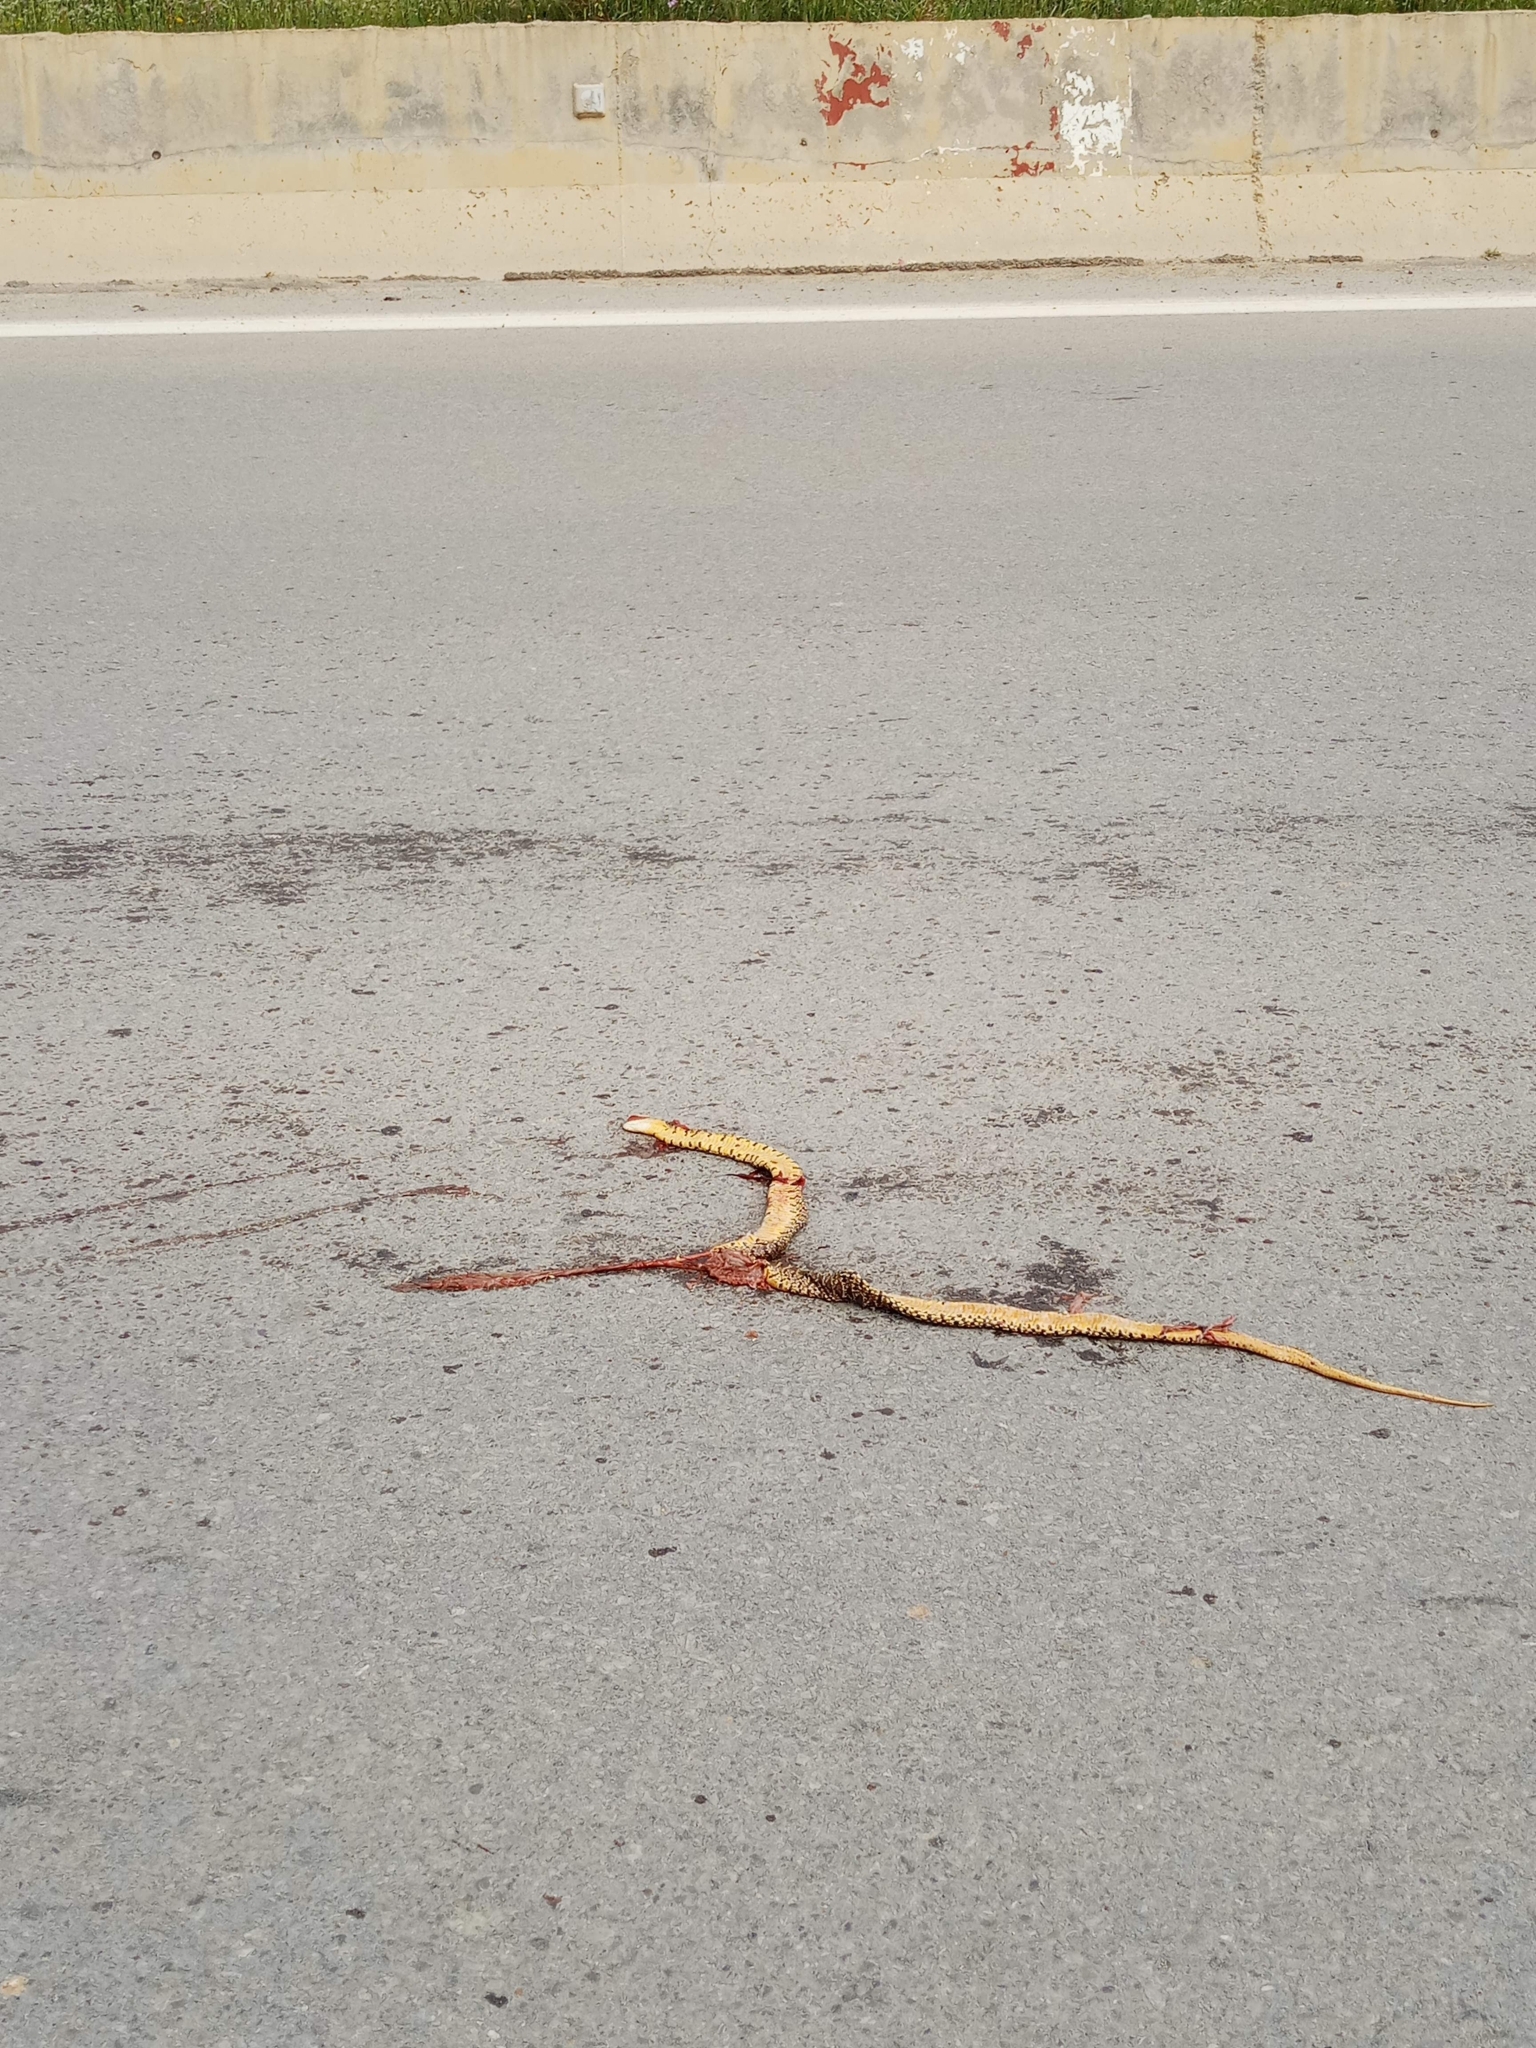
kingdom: Animalia
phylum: Chordata
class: Squamata
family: Colubridae
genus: Hemorrhois
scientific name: Hemorrhois hippocrepis
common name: Horseshoe whip snake
